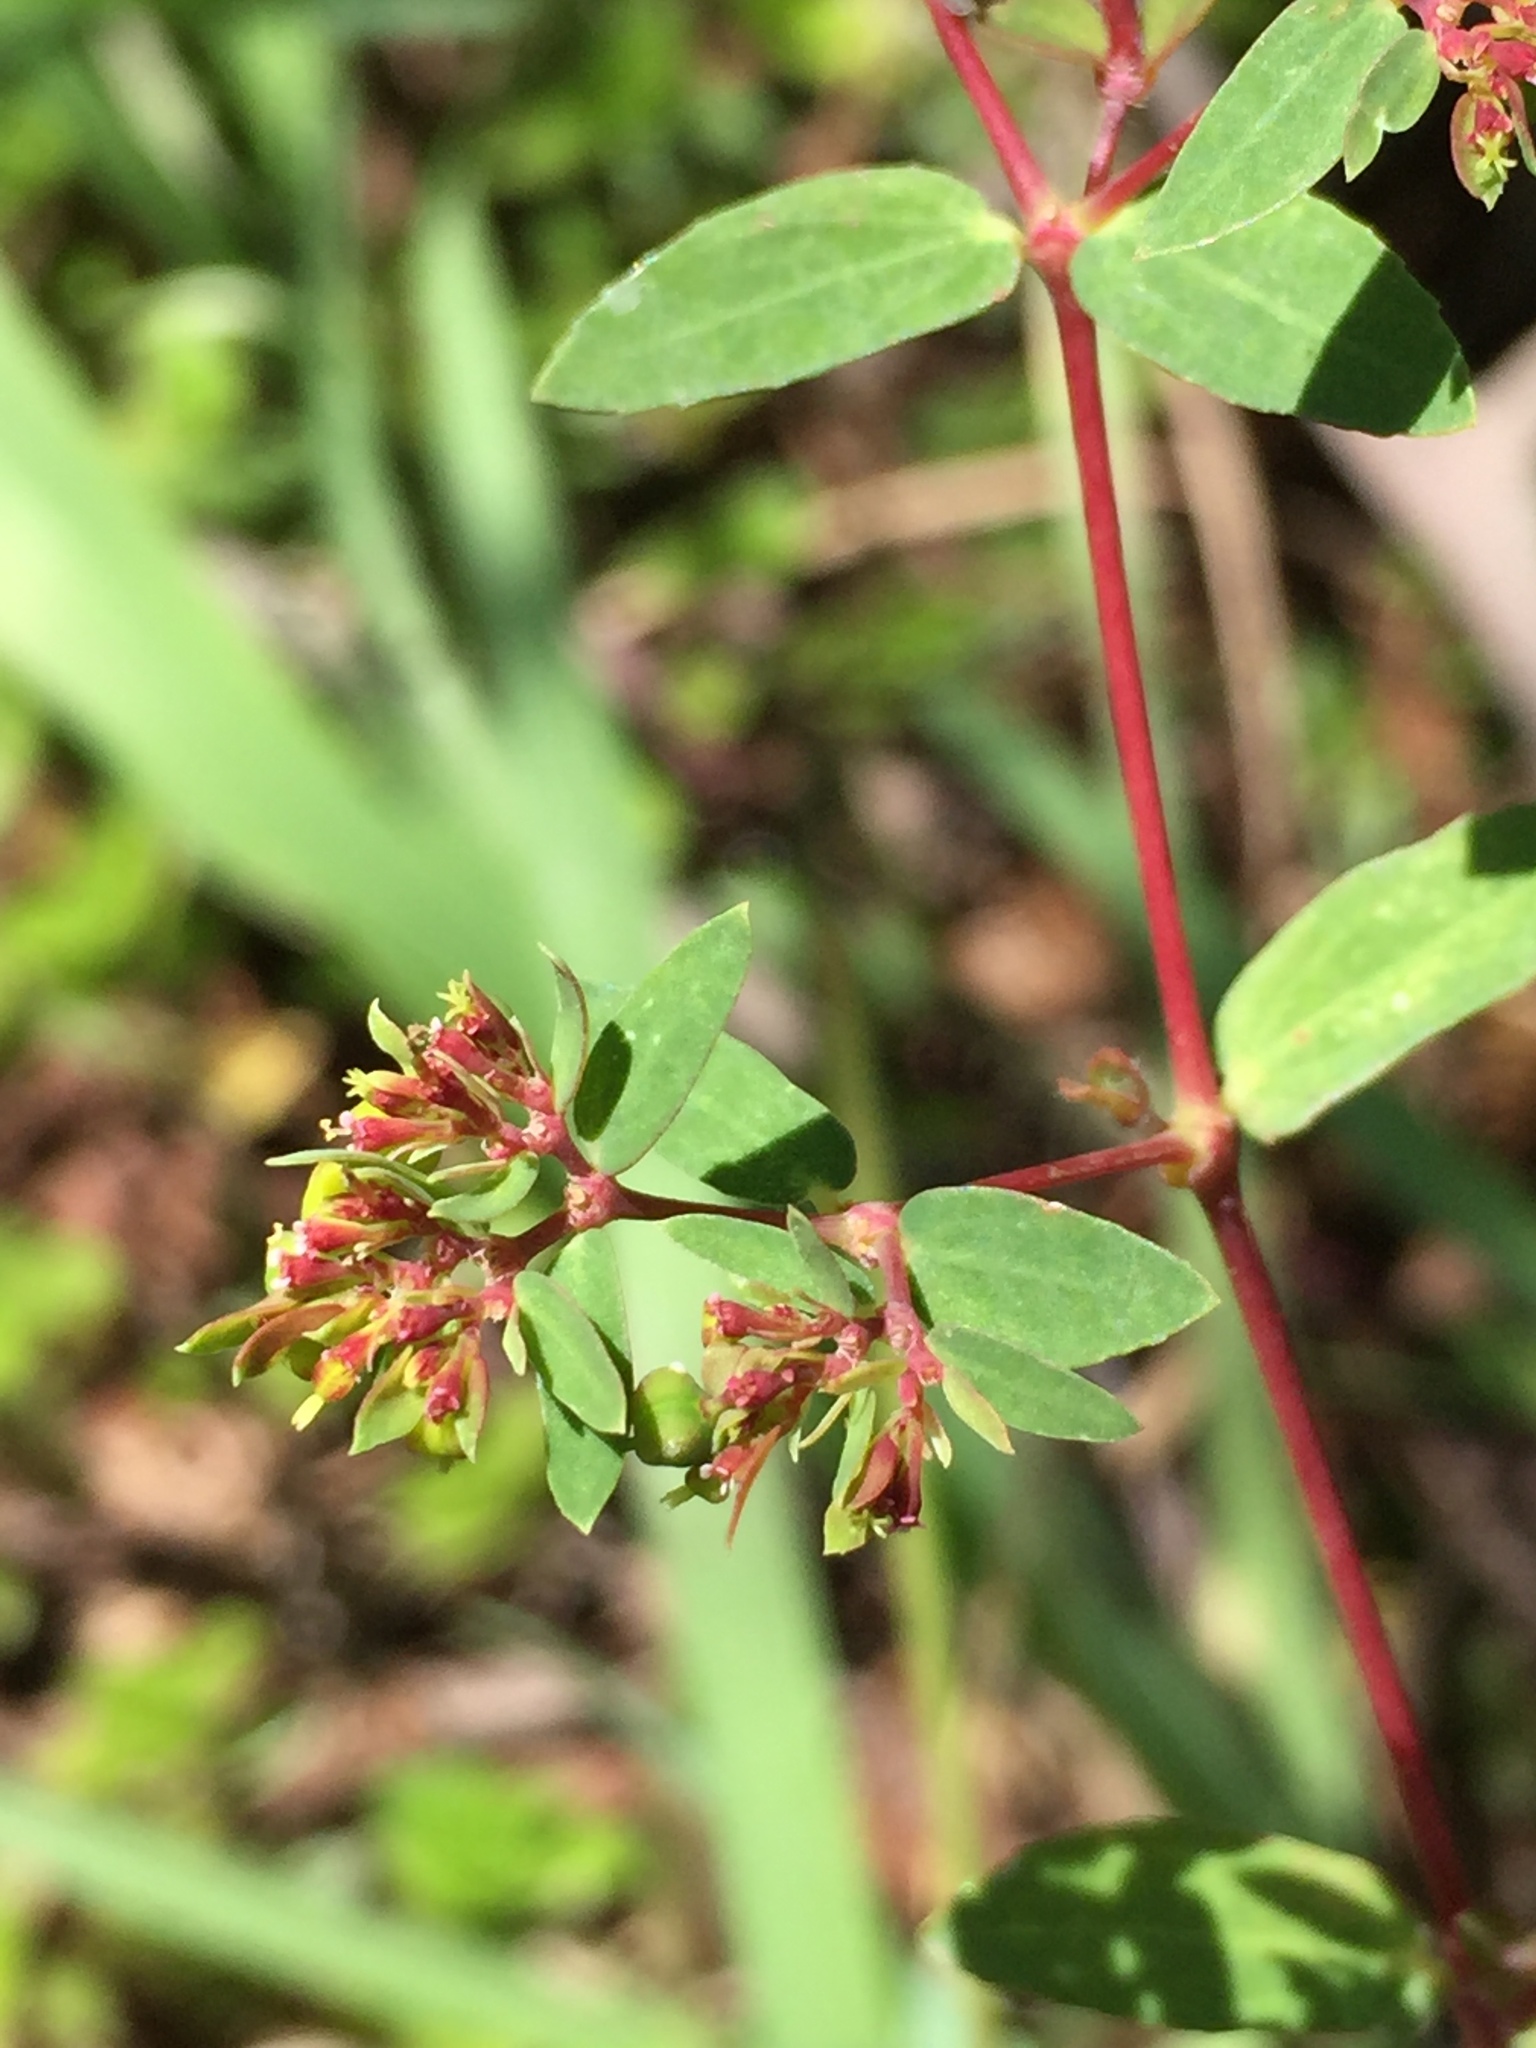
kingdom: Plantae
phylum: Tracheophyta
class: Magnoliopsida
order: Malpighiales
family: Euphorbiaceae
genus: Euphorbia
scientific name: Euphorbia hyssopifolia
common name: Hyssopleaf sandmat
